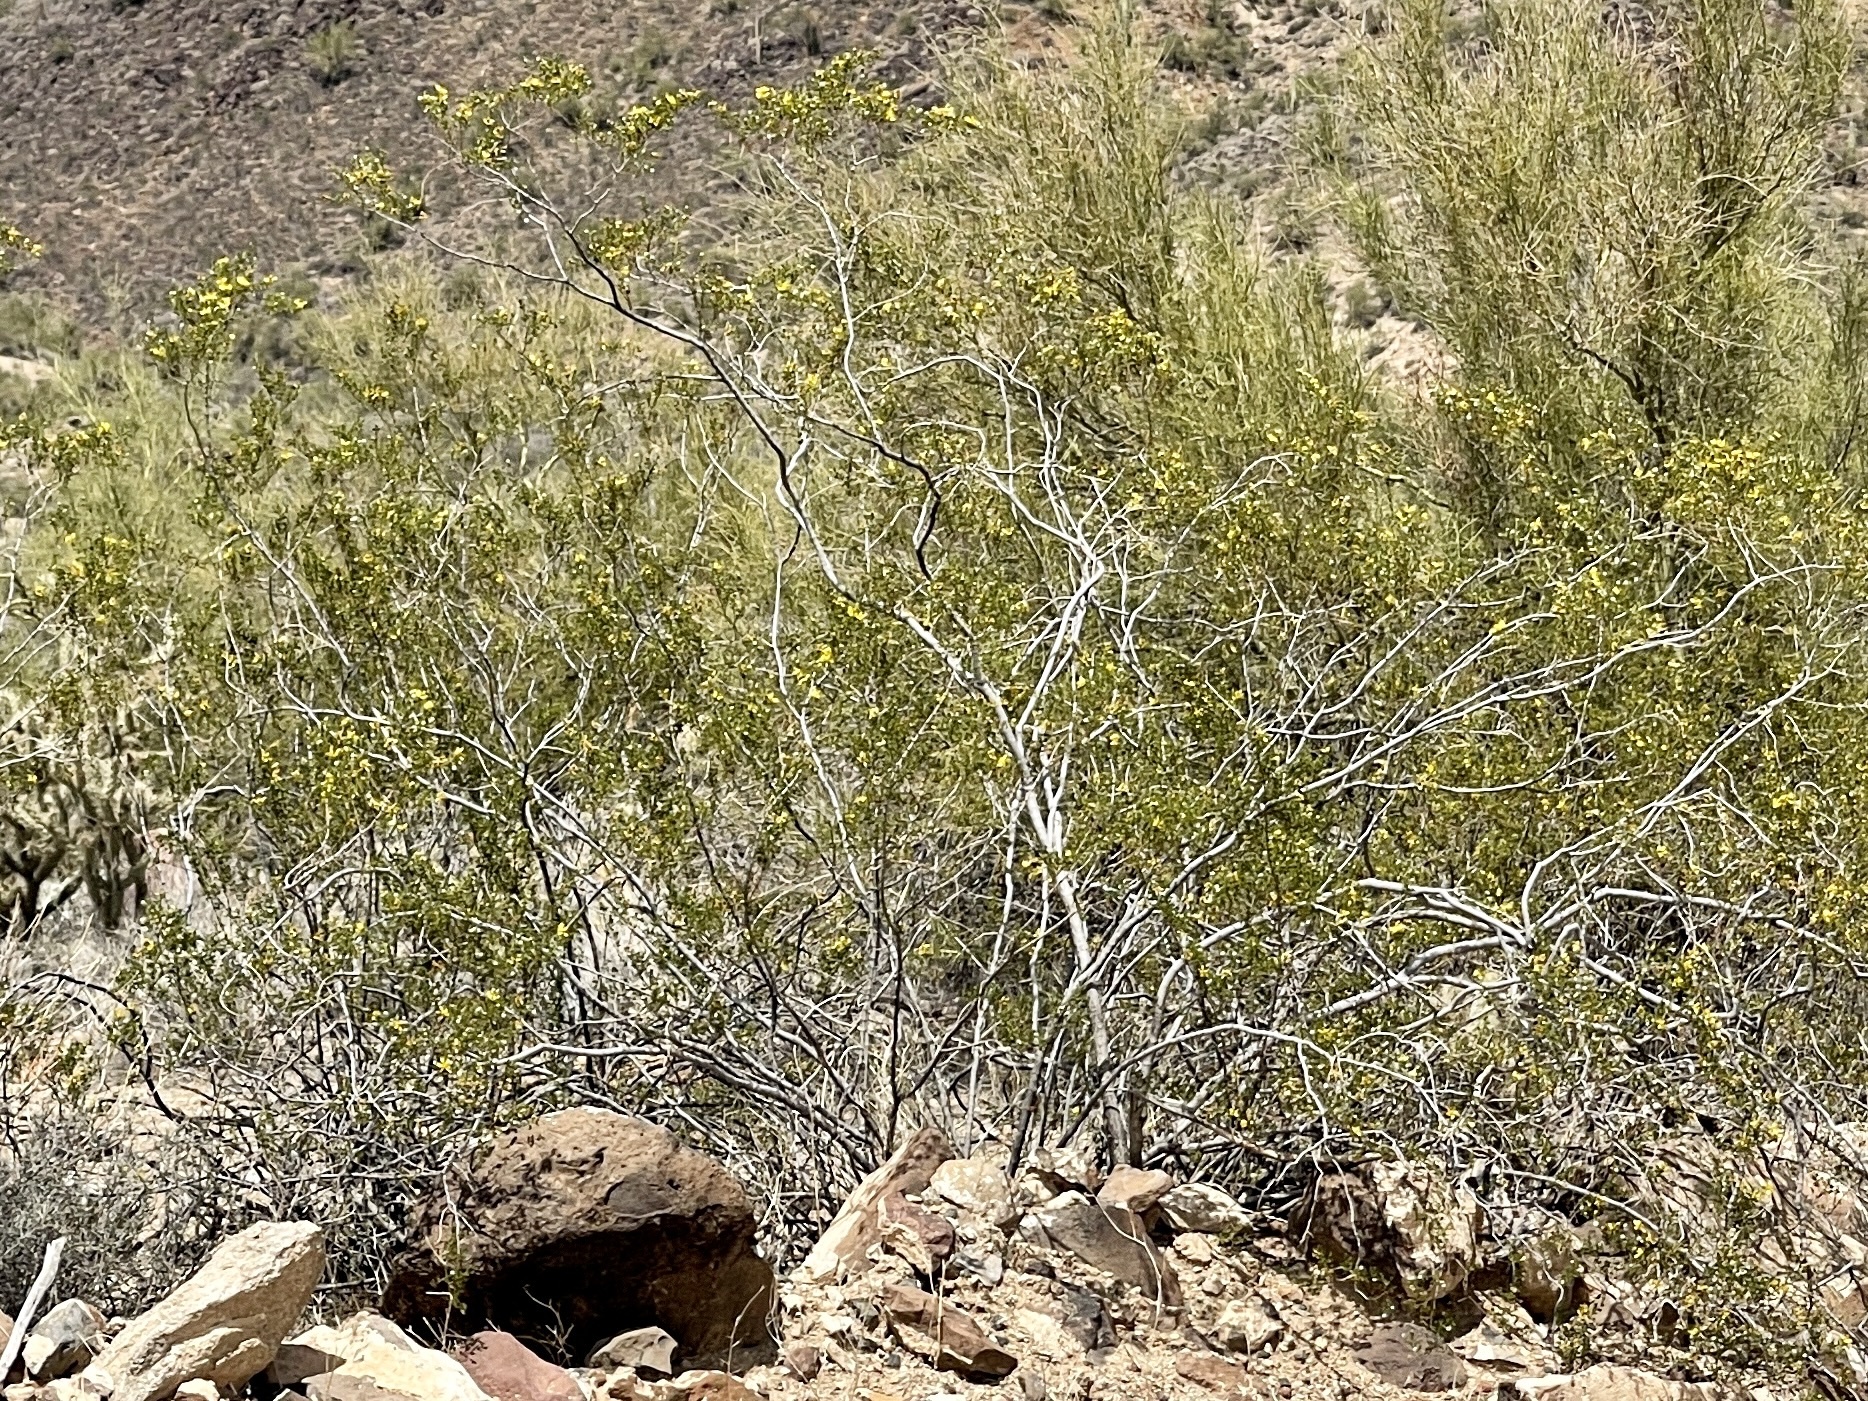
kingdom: Plantae
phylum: Tracheophyta
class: Magnoliopsida
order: Zygophyllales
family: Zygophyllaceae
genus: Larrea
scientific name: Larrea tridentata
